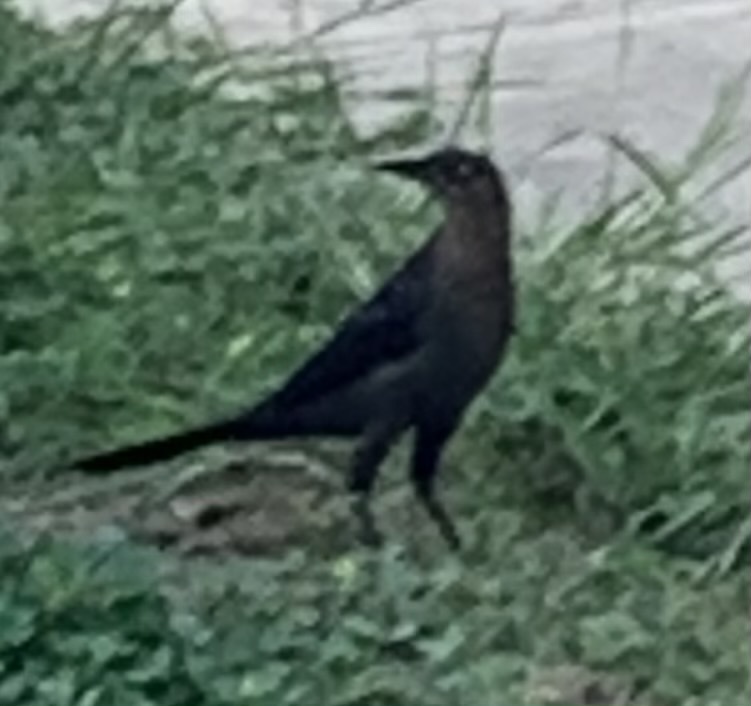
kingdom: Animalia
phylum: Chordata
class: Aves
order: Passeriformes
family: Icteridae
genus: Quiscalus
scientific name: Quiscalus mexicanus
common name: Great-tailed grackle
